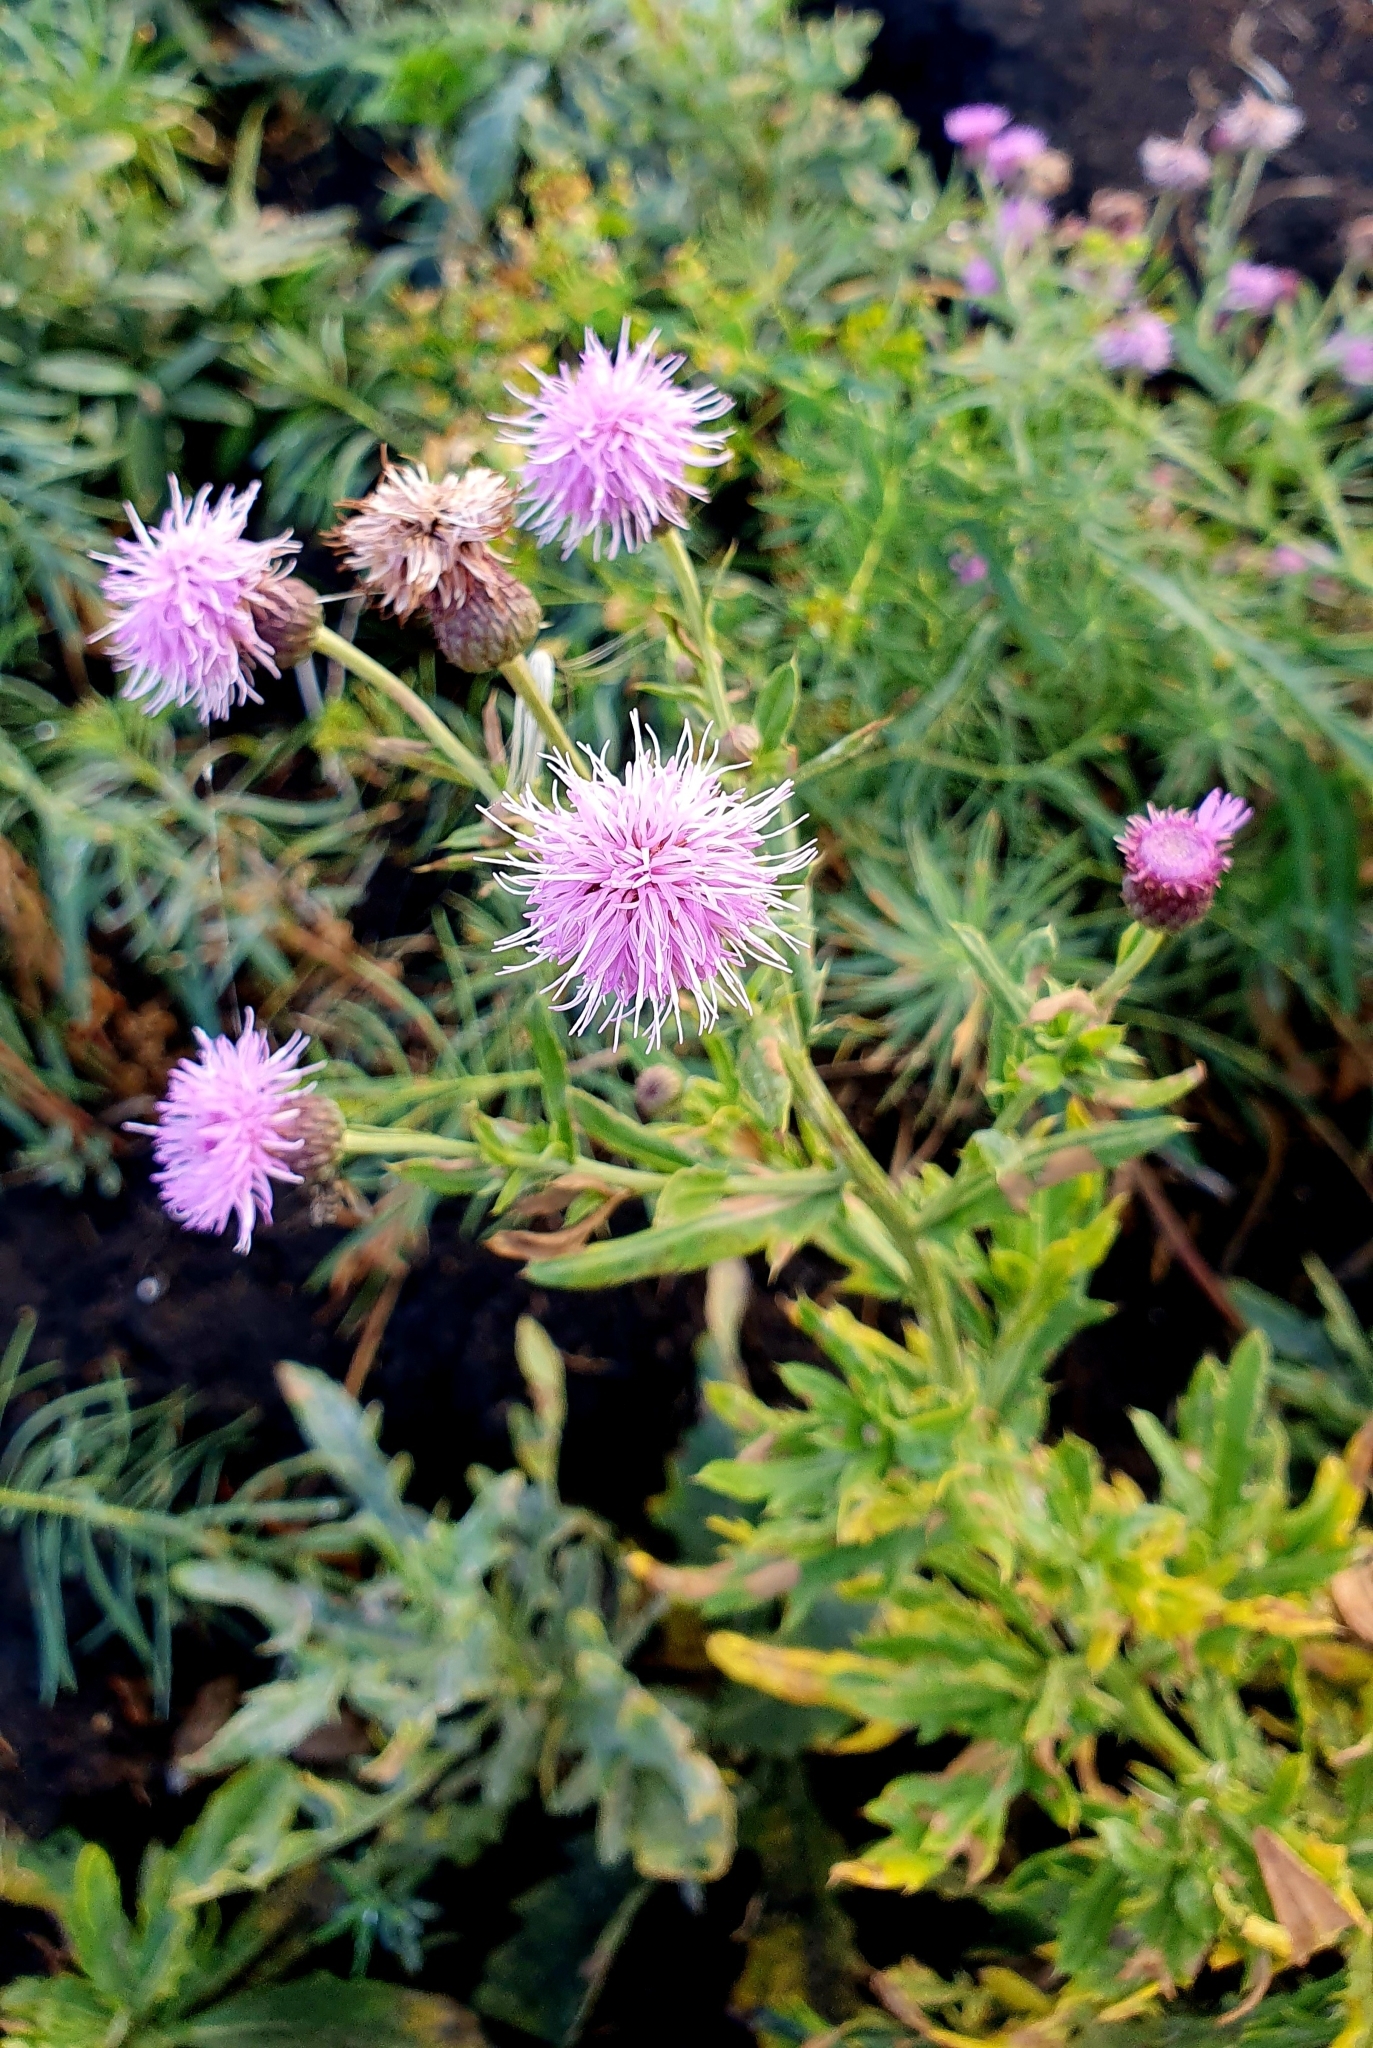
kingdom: Plantae
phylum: Tracheophyta
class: Magnoliopsida
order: Asterales
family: Asteraceae
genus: Cirsium
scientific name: Cirsium arvense
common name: Creeping thistle
